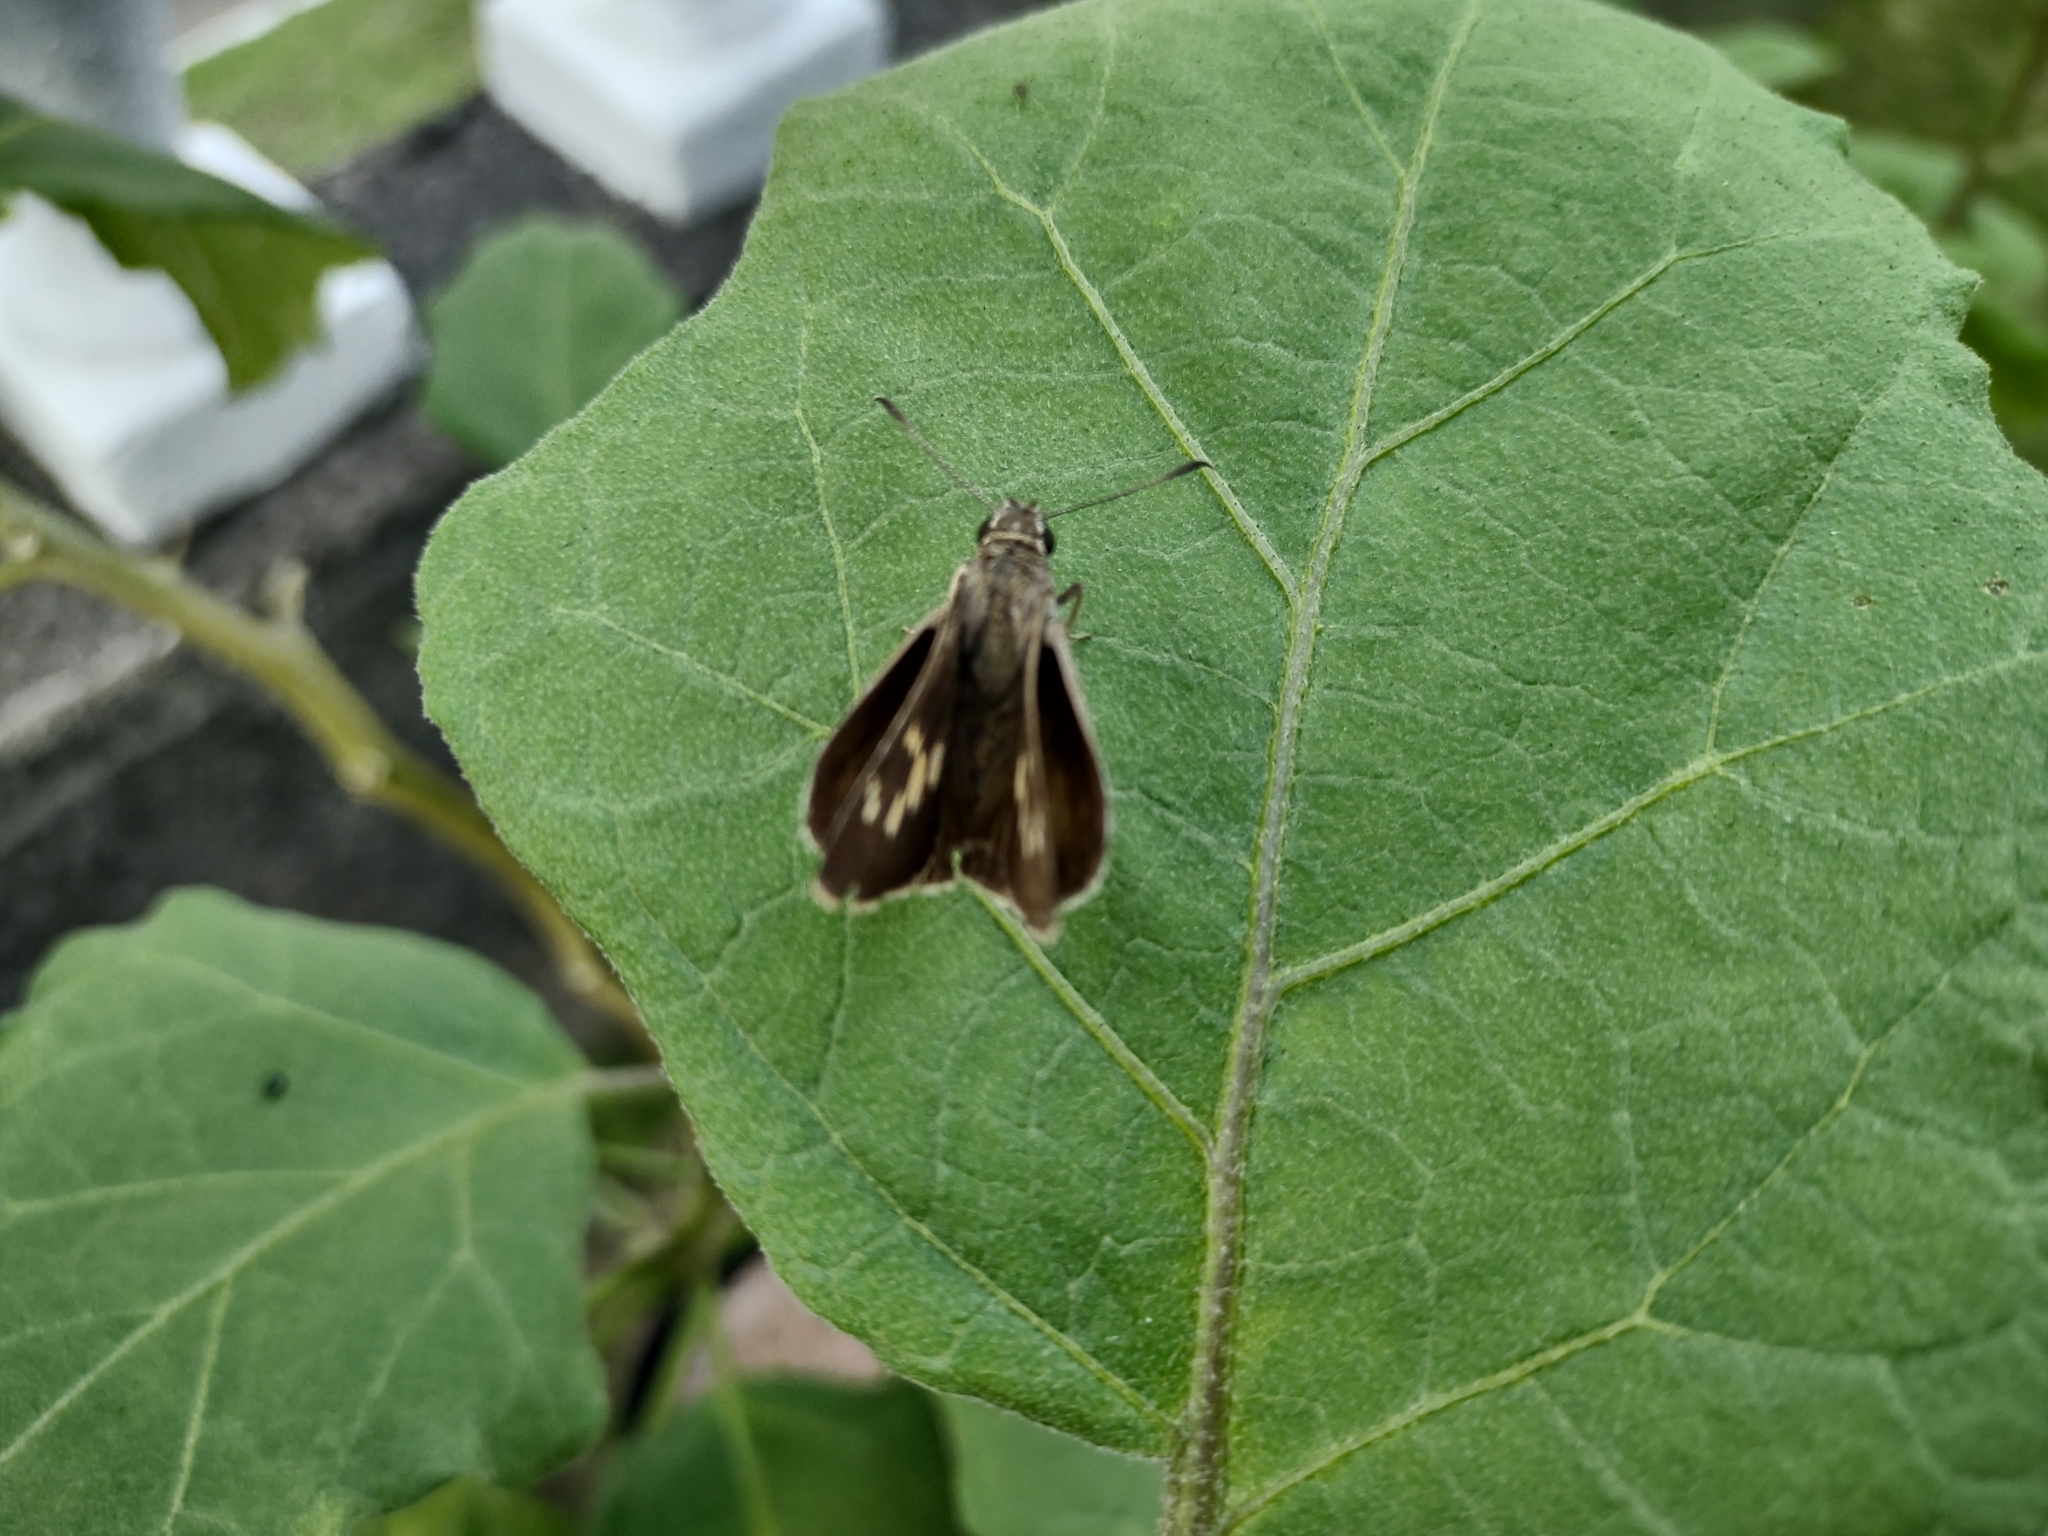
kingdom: Animalia
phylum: Arthropoda
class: Insecta
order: Lepidoptera
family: Hesperiidae
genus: Suastus
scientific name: Suastus migreus
